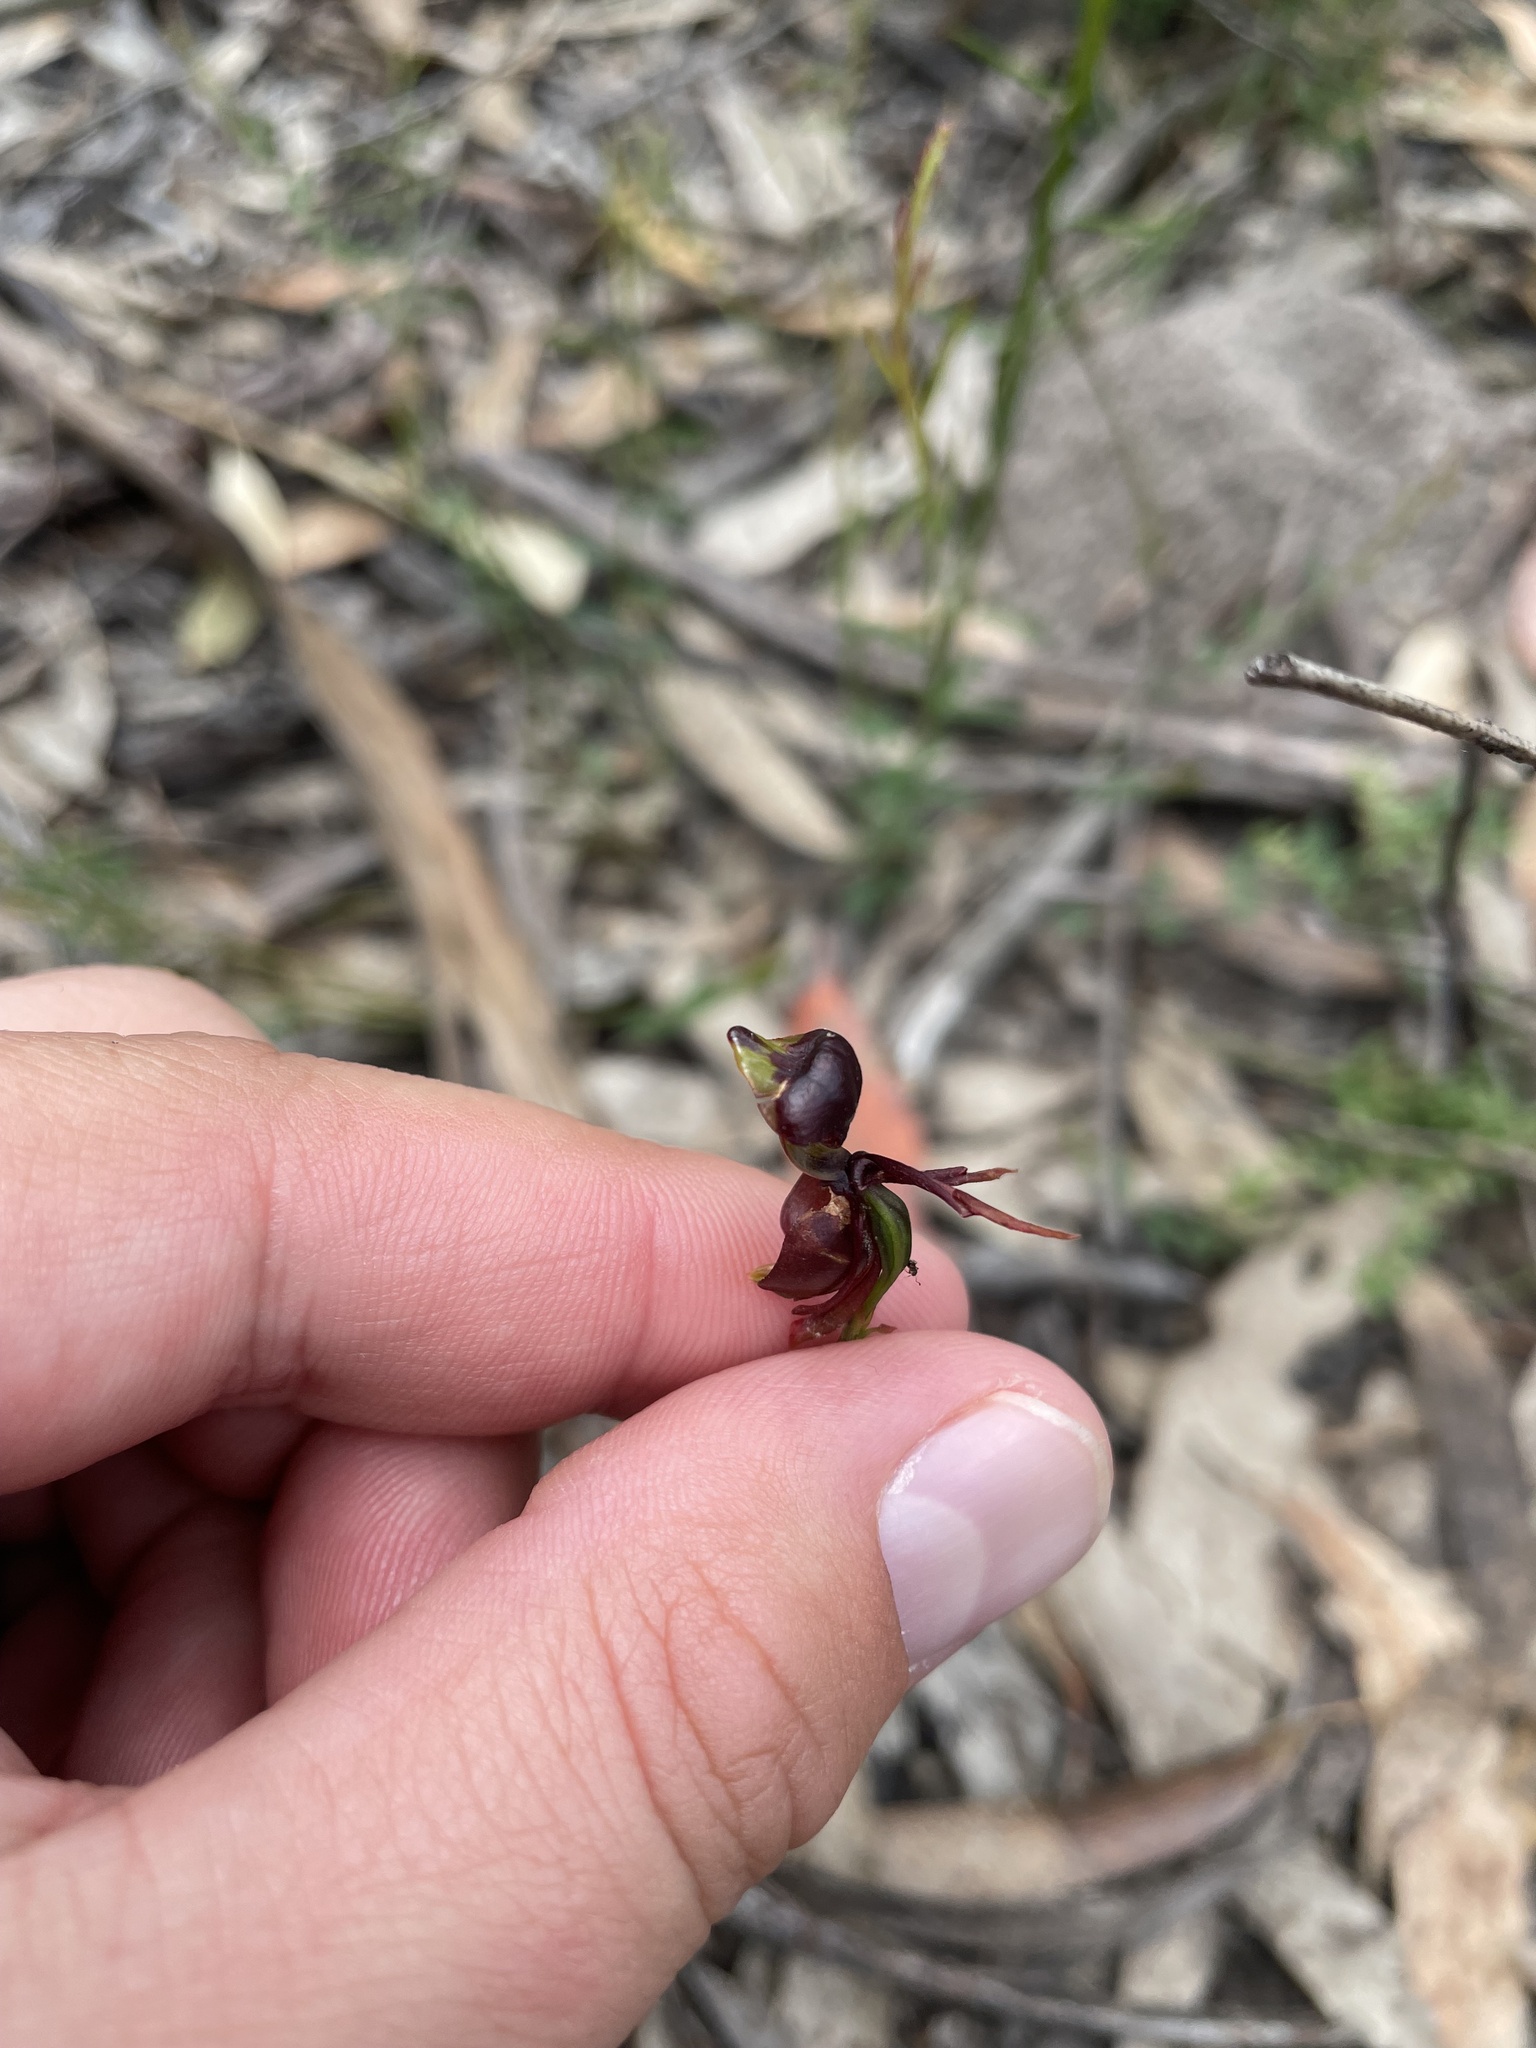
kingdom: Plantae
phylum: Tracheophyta
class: Liliopsida
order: Asparagales
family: Orchidaceae
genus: Caleana
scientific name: Caleana major
